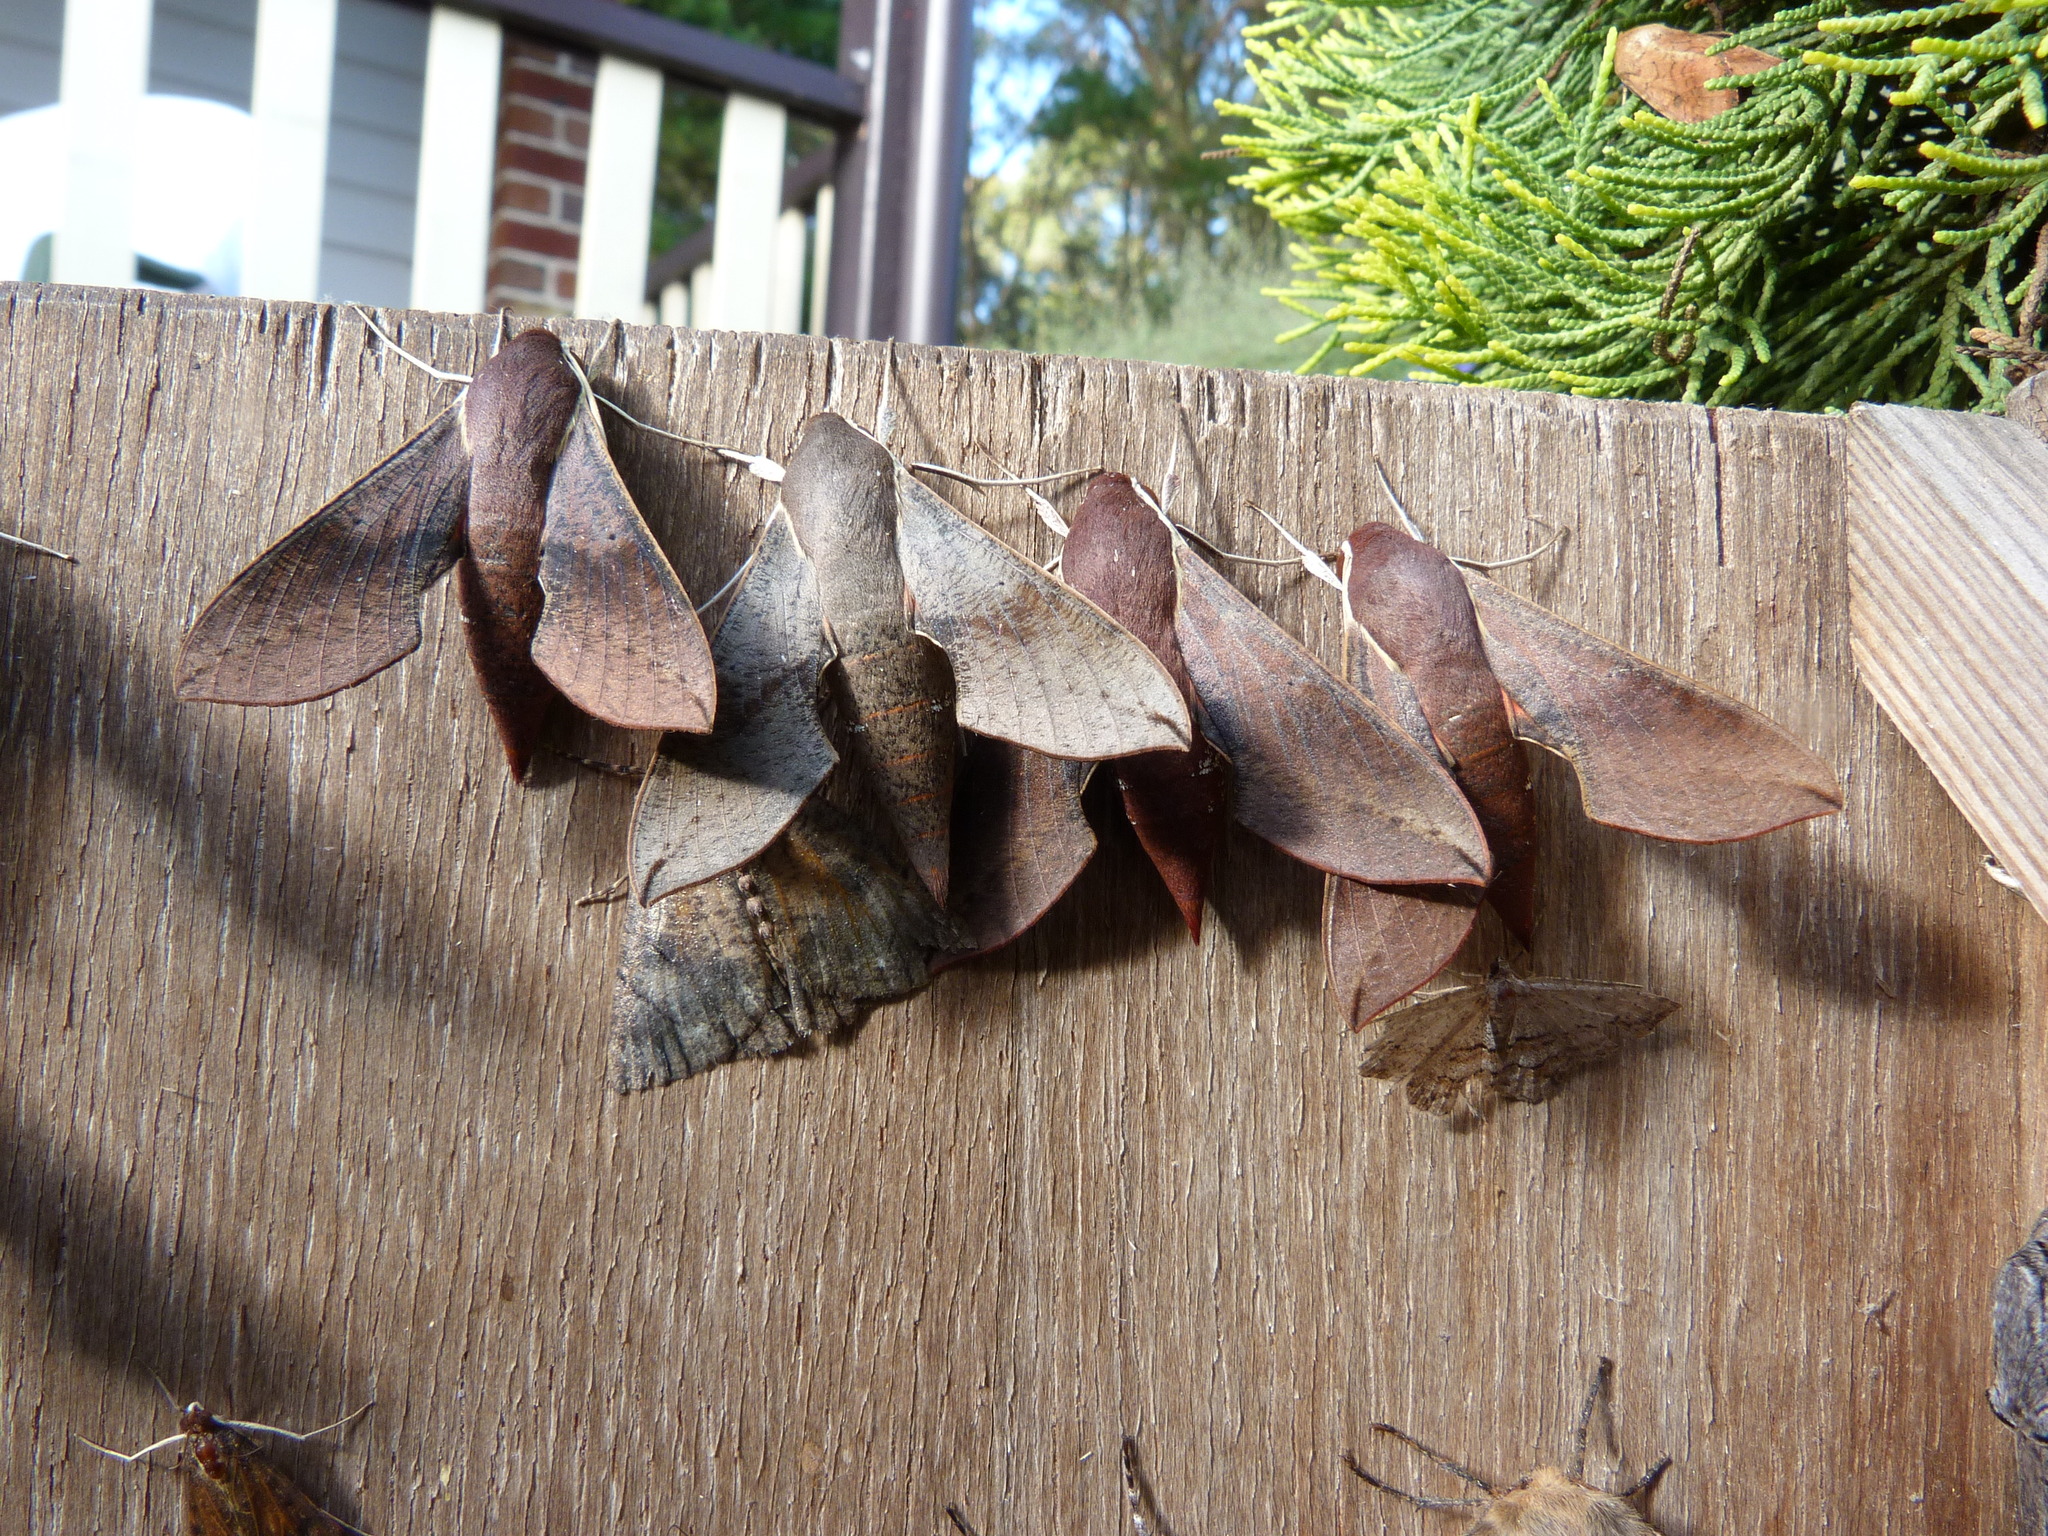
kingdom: Animalia
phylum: Arthropoda
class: Insecta
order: Lepidoptera
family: Sphingidae
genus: Hippotion
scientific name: Hippotion celerio
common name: Silver-striped hawk-moth
